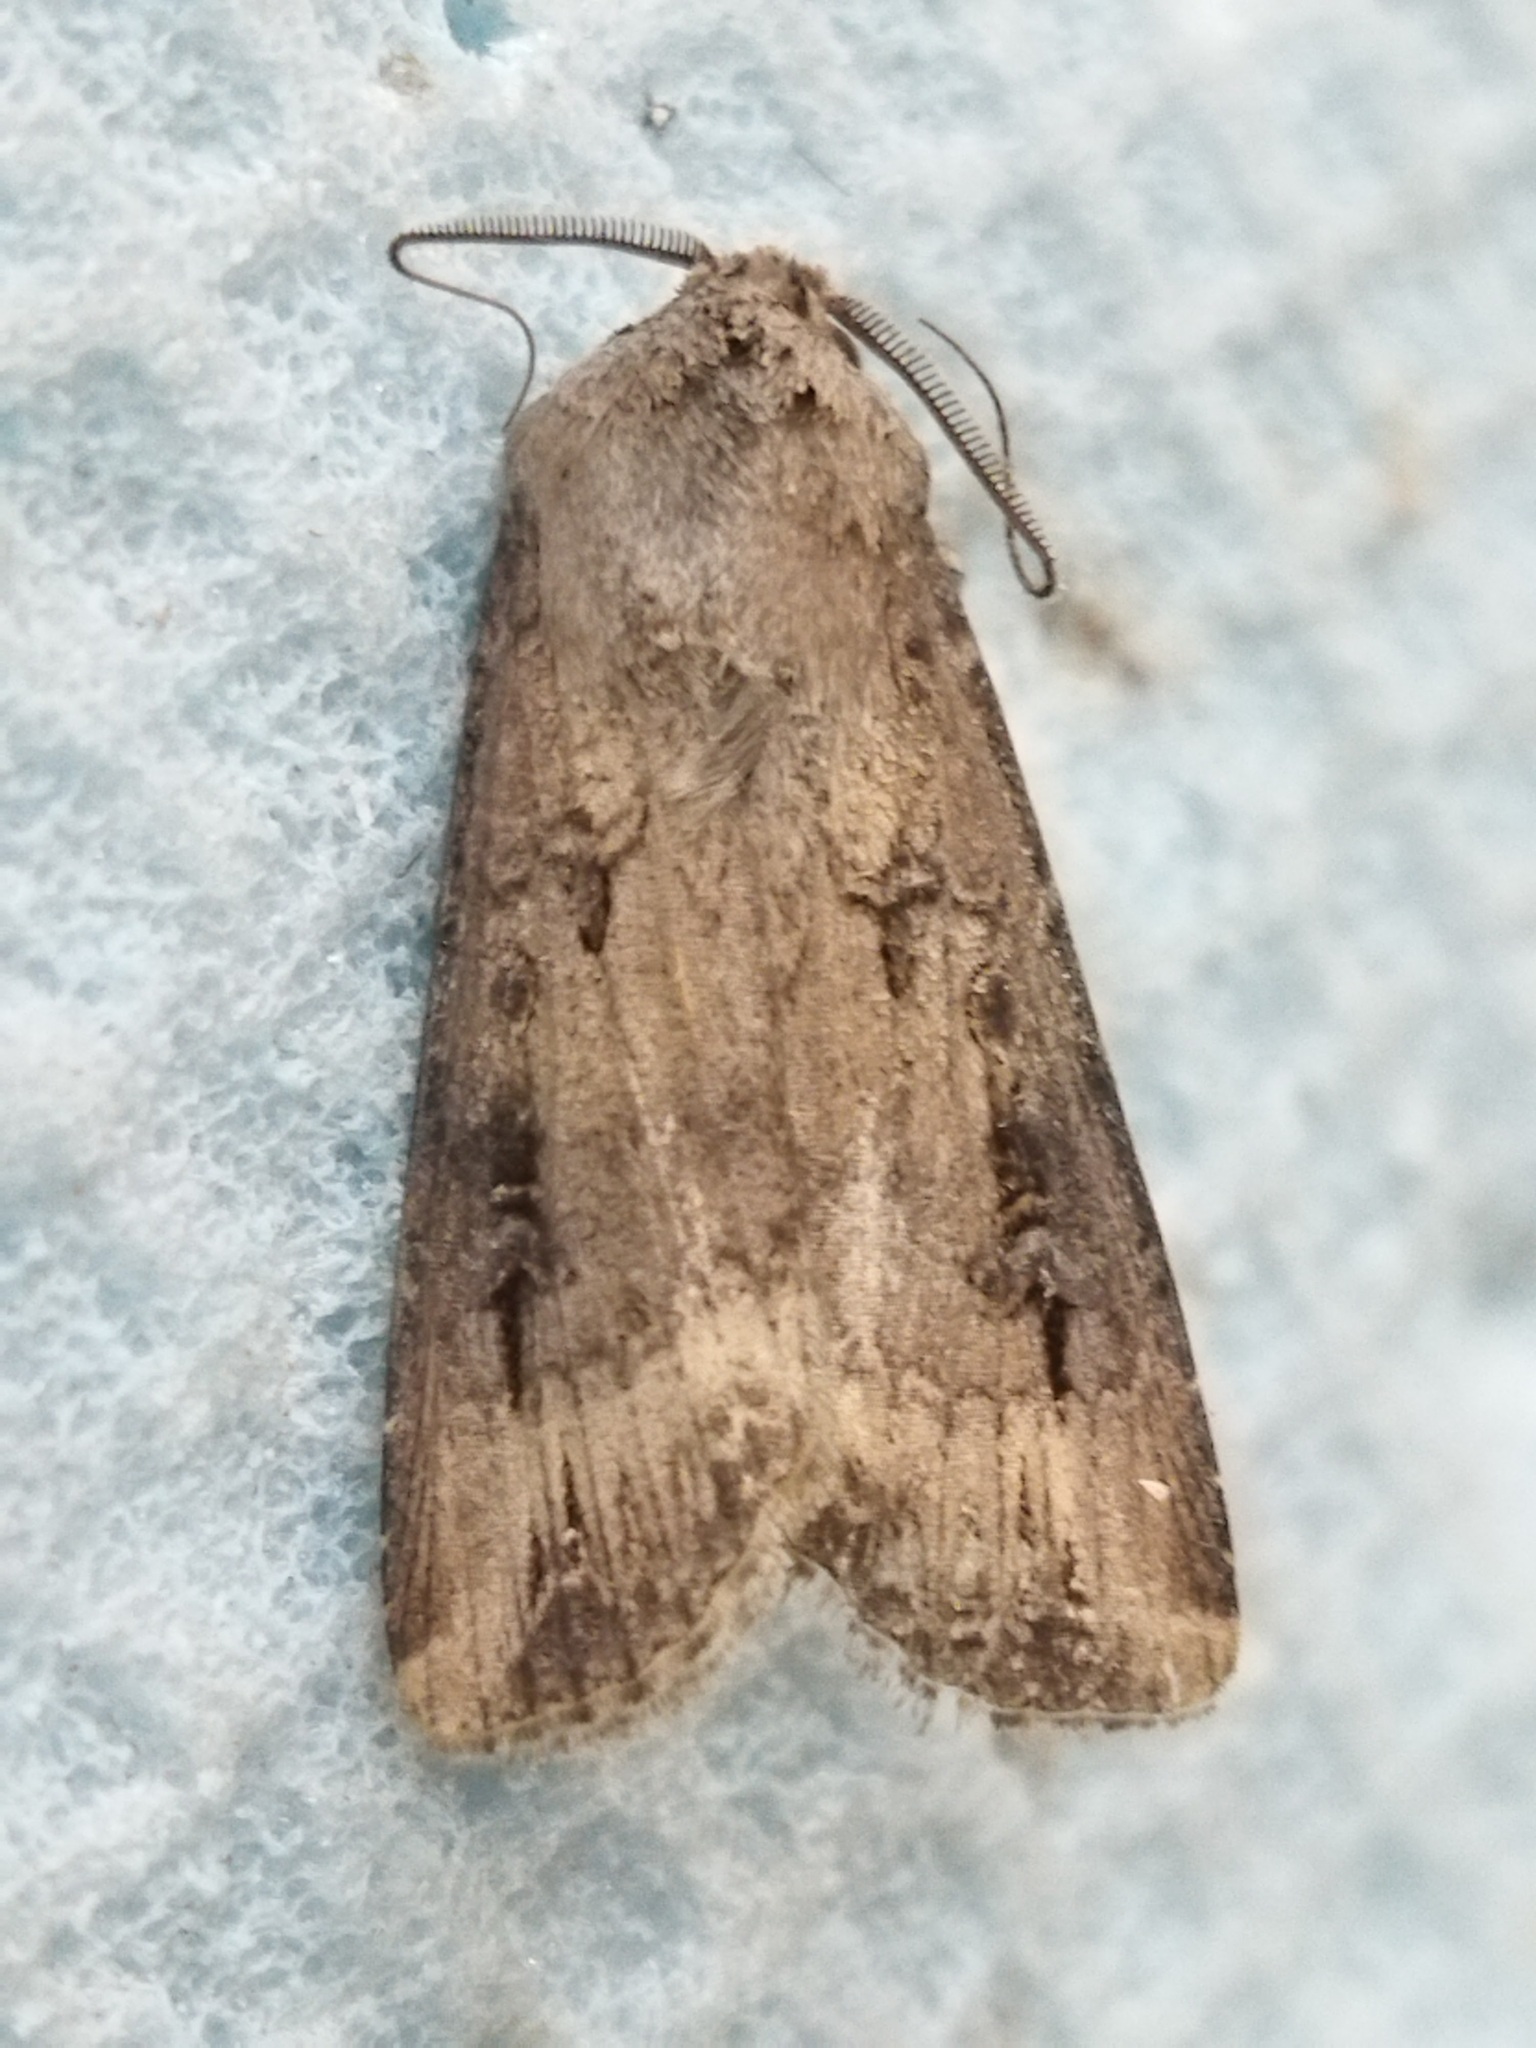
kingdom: Animalia
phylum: Arthropoda
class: Insecta
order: Lepidoptera
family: Noctuidae
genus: Agrotis
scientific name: Agrotis ipsilon
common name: Dark sword-grass
